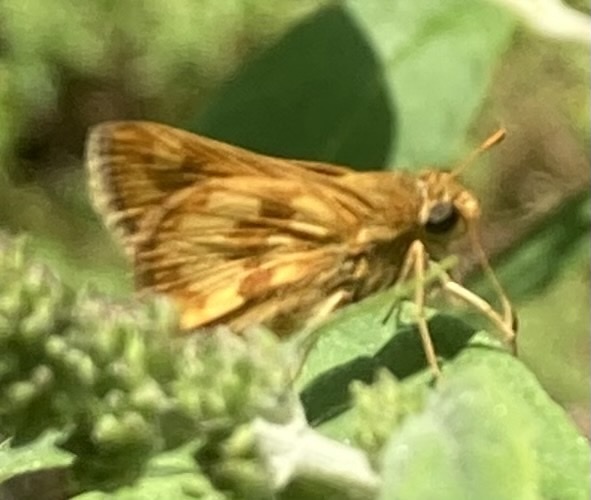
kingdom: Animalia
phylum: Arthropoda
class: Insecta
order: Lepidoptera
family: Hesperiidae
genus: Polites
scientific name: Polites coras
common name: Peck's skipper
